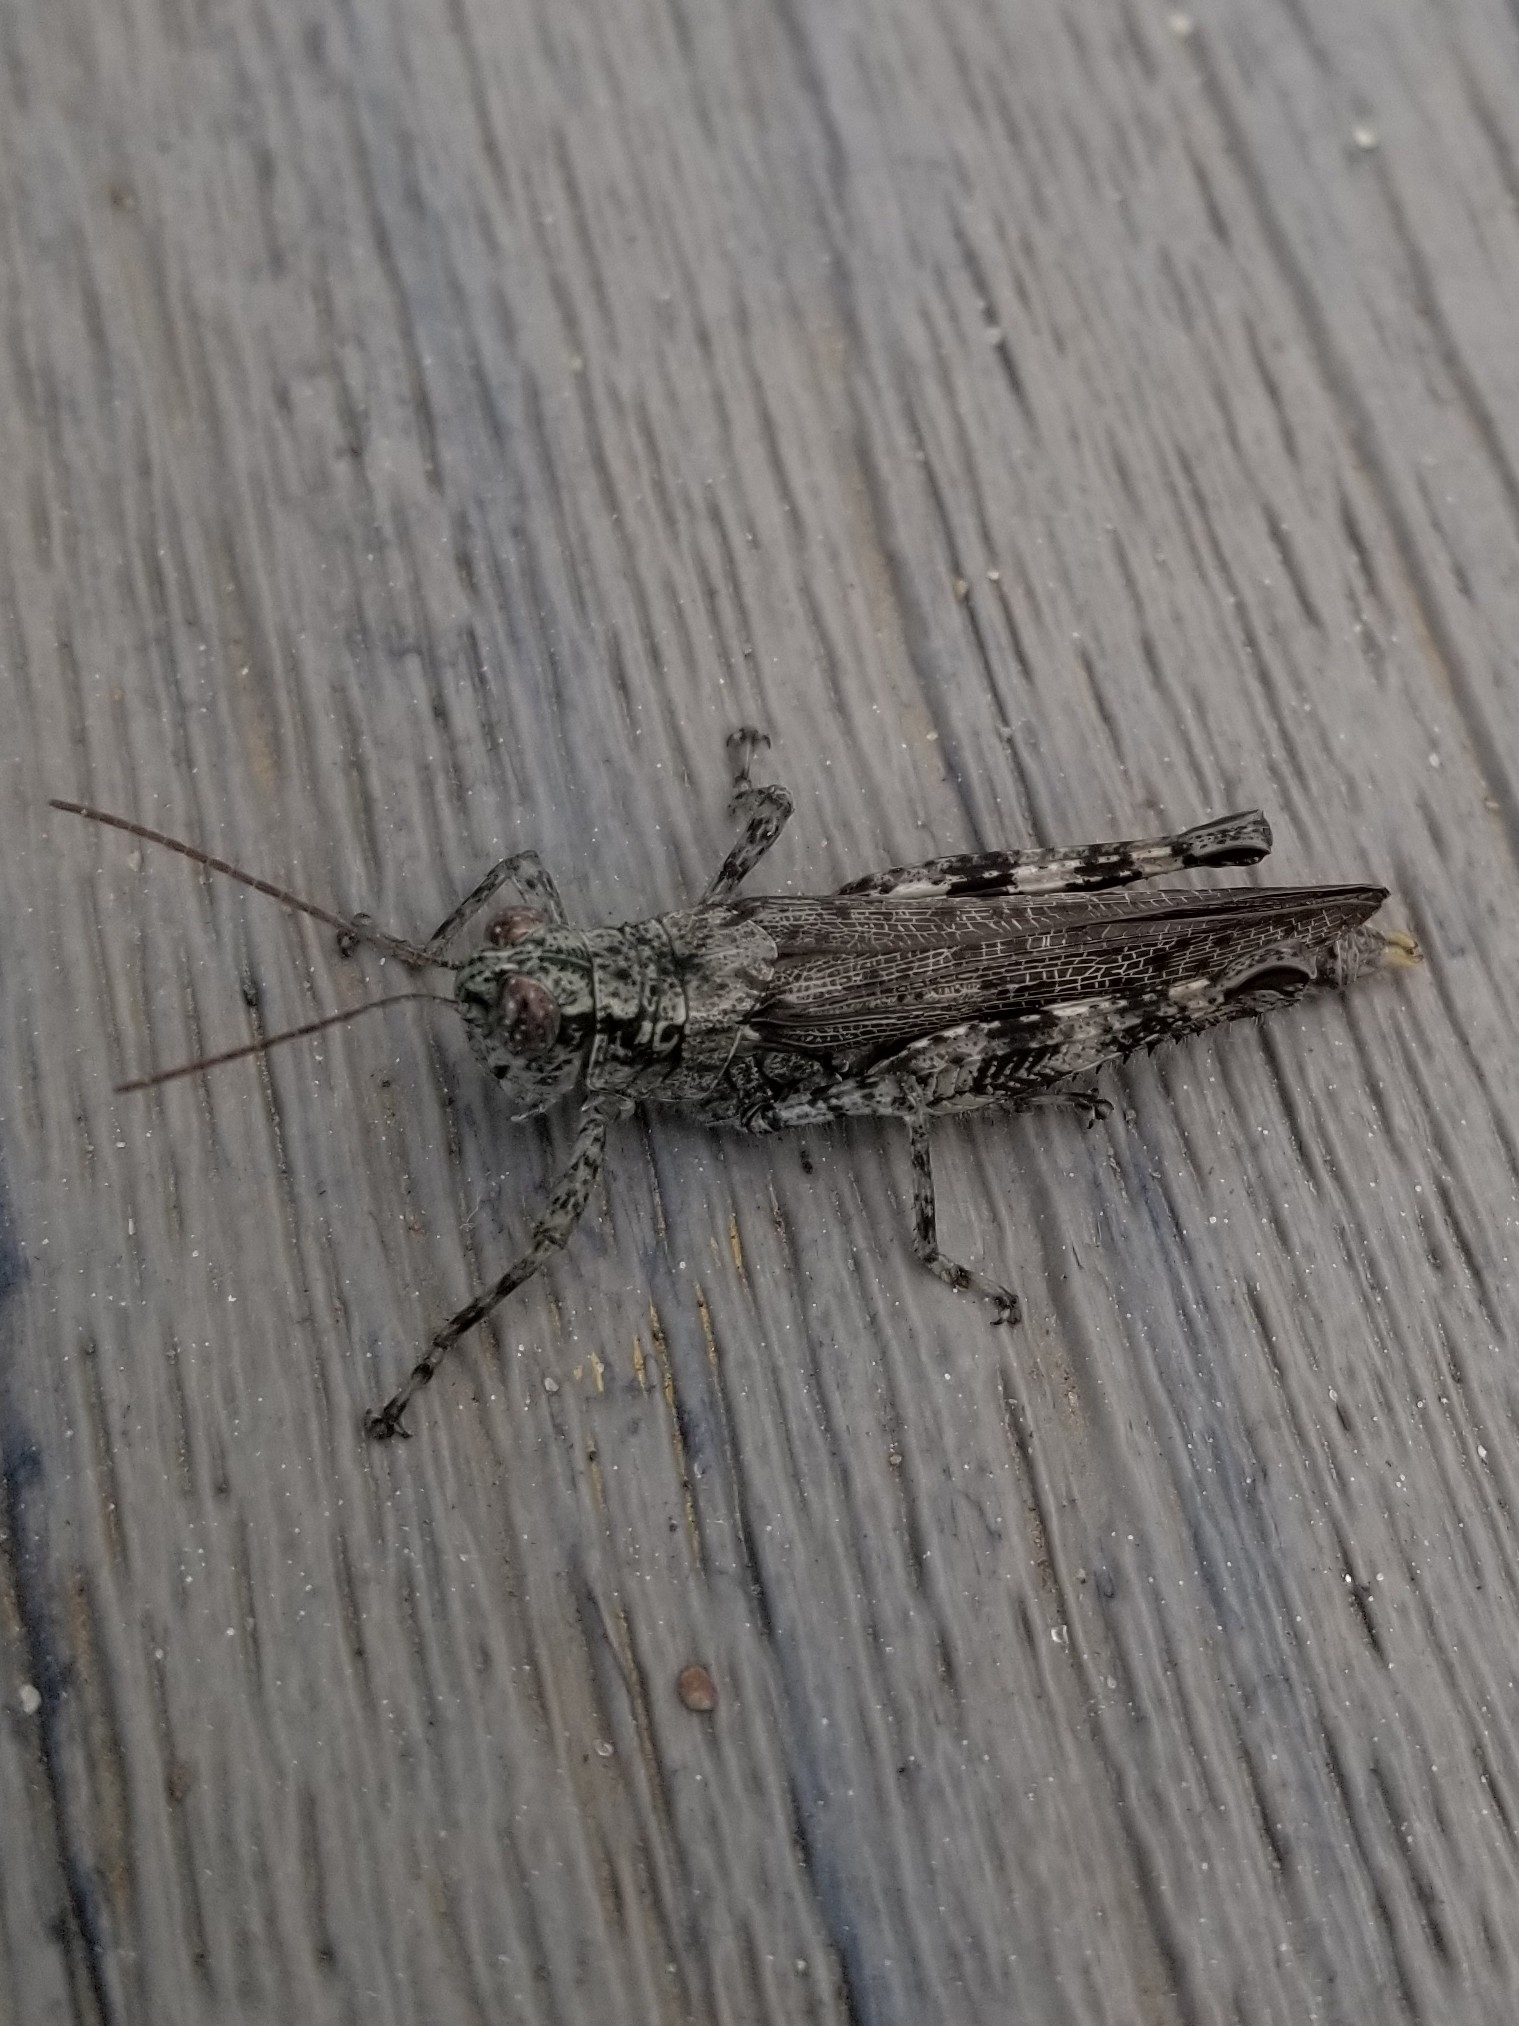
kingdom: Animalia
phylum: Arthropoda
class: Insecta
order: Orthoptera
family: Acrididae
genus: Melanoplus
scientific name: Melanoplus punctulatus
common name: Pine-tree spur-throat grasshopper
